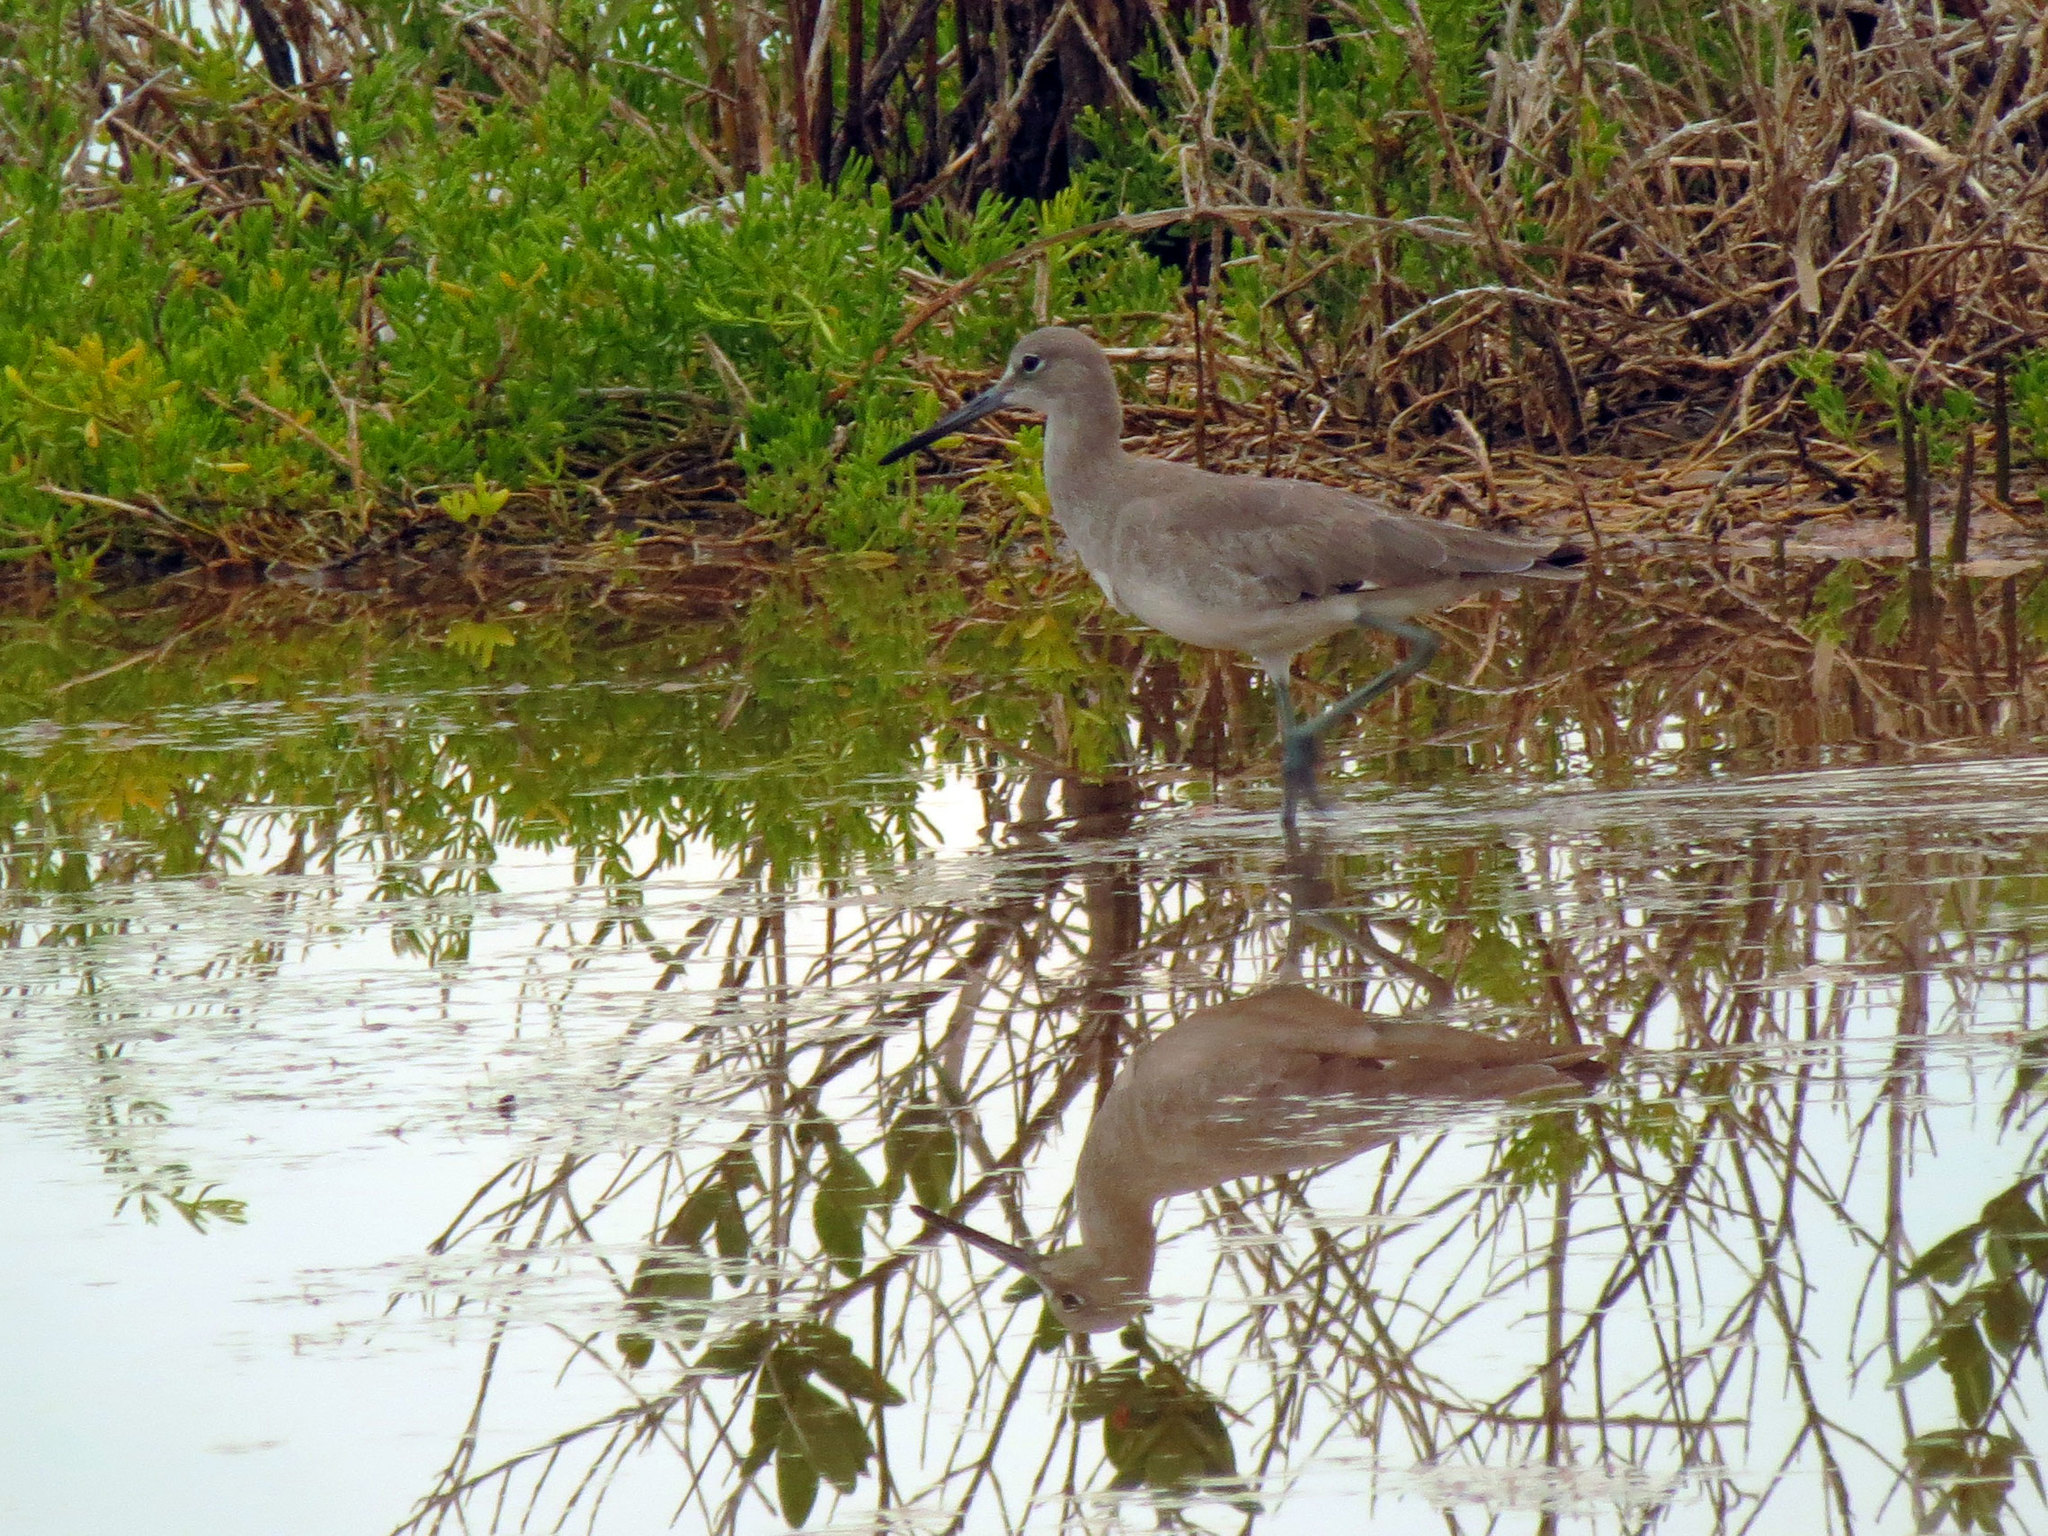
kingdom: Animalia
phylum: Chordata
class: Aves
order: Charadriiformes
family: Scolopacidae
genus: Tringa
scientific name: Tringa semipalmata
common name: Willet
